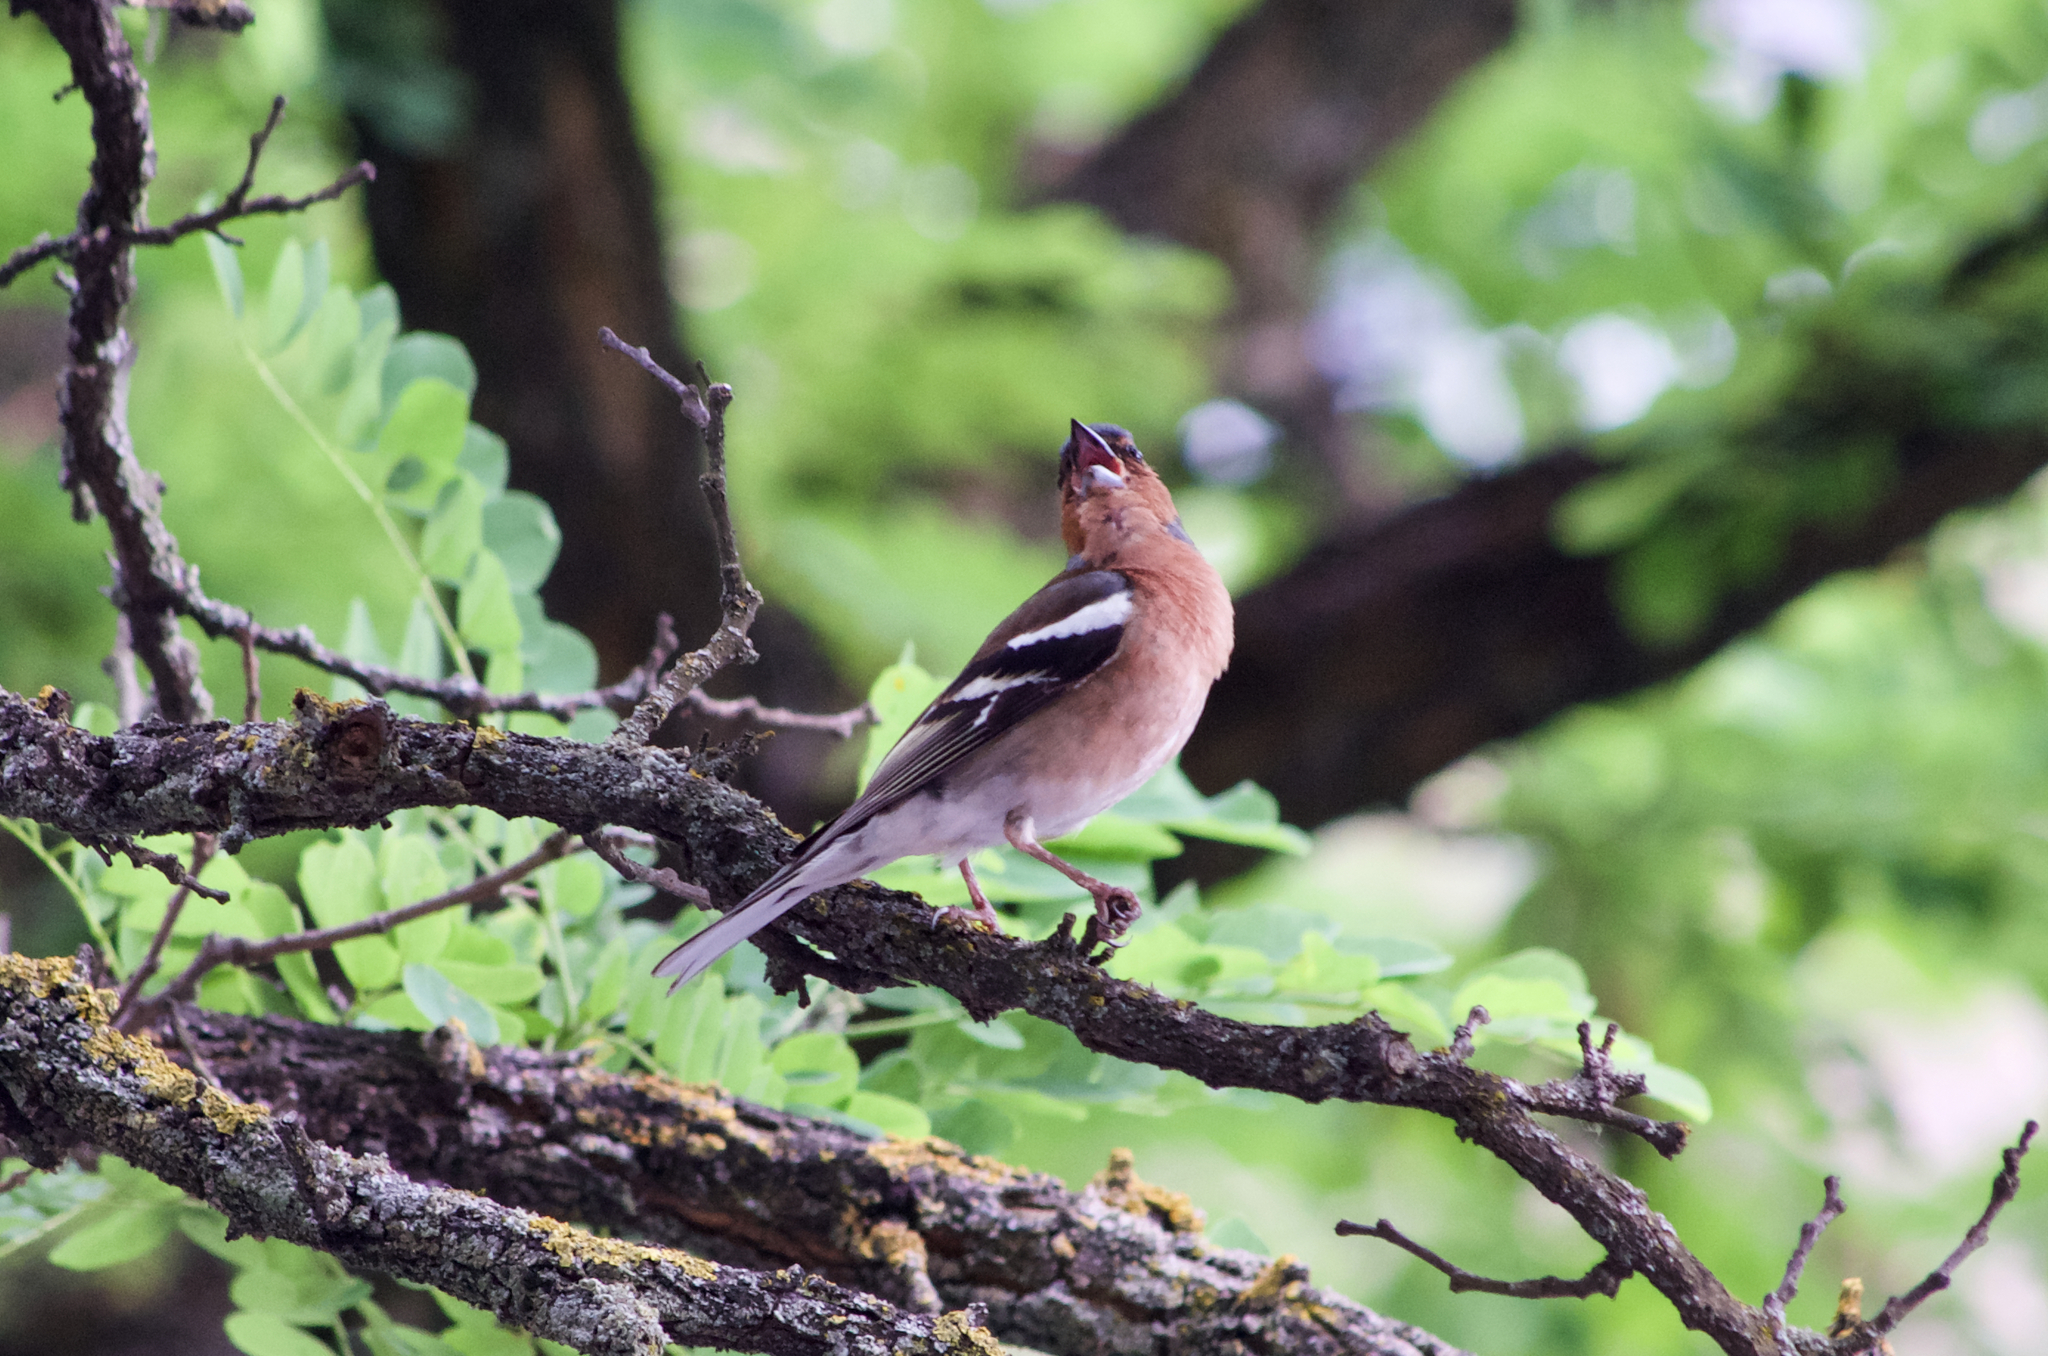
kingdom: Animalia
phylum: Chordata
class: Aves
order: Passeriformes
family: Fringillidae
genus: Fringilla
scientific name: Fringilla coelebs
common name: Common chaffinch
